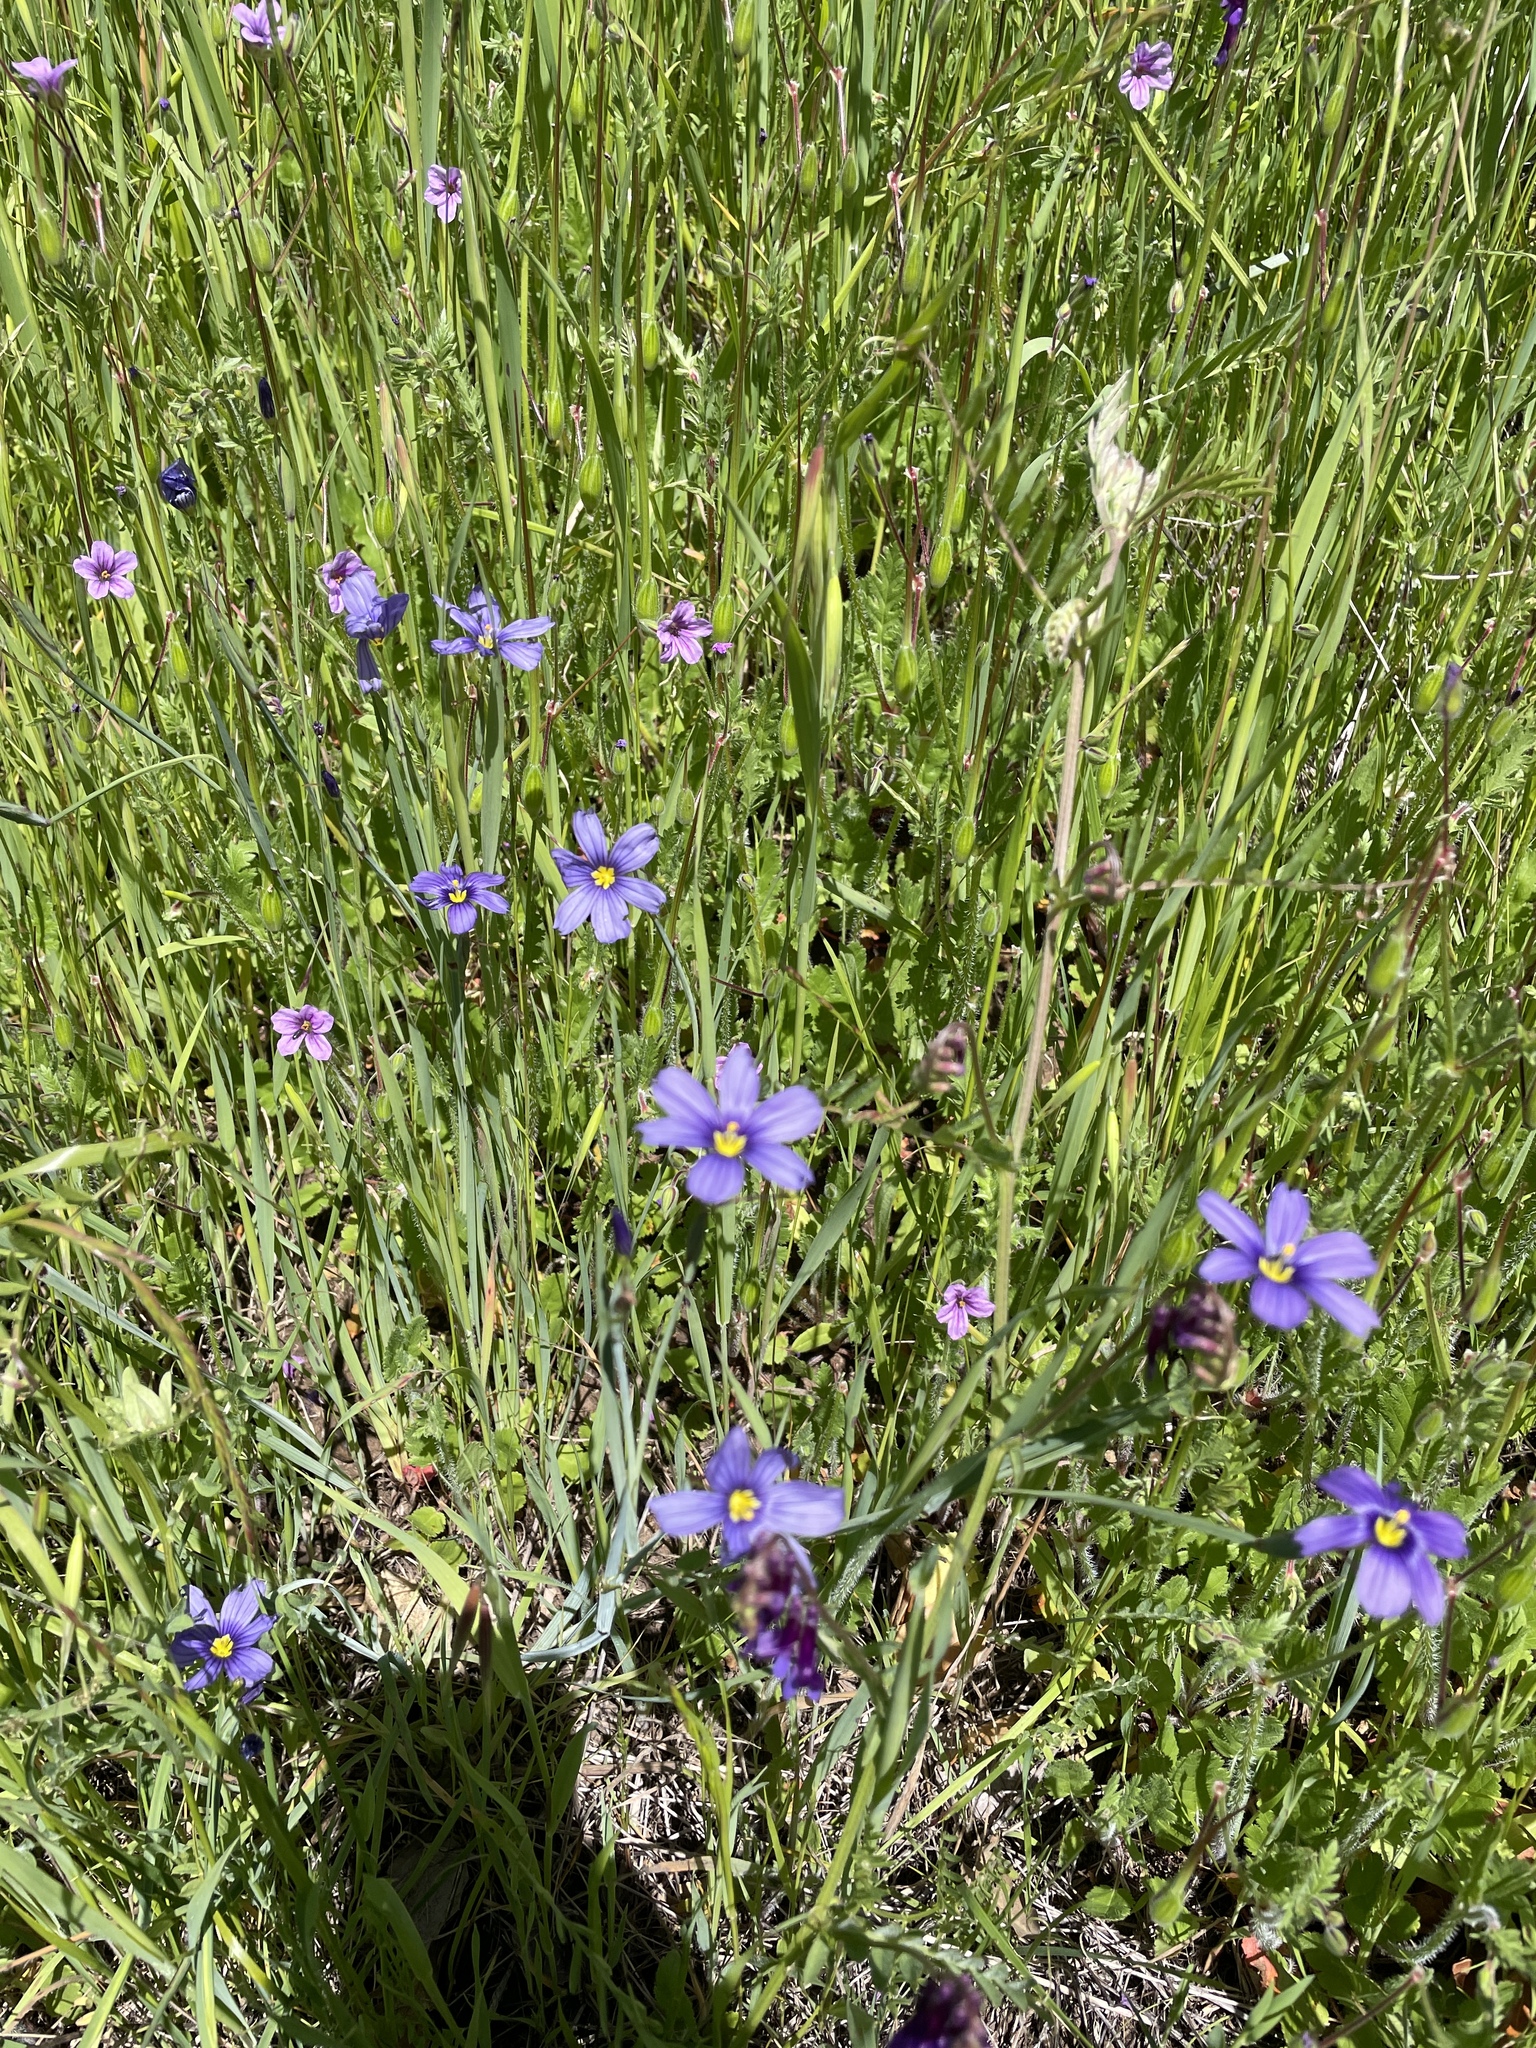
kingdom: Plantae
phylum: Tracheophyta
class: Liliopsida
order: Asparagales
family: Iridaceae
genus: Sisyrinchium
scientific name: Sisyrinchium bellum
